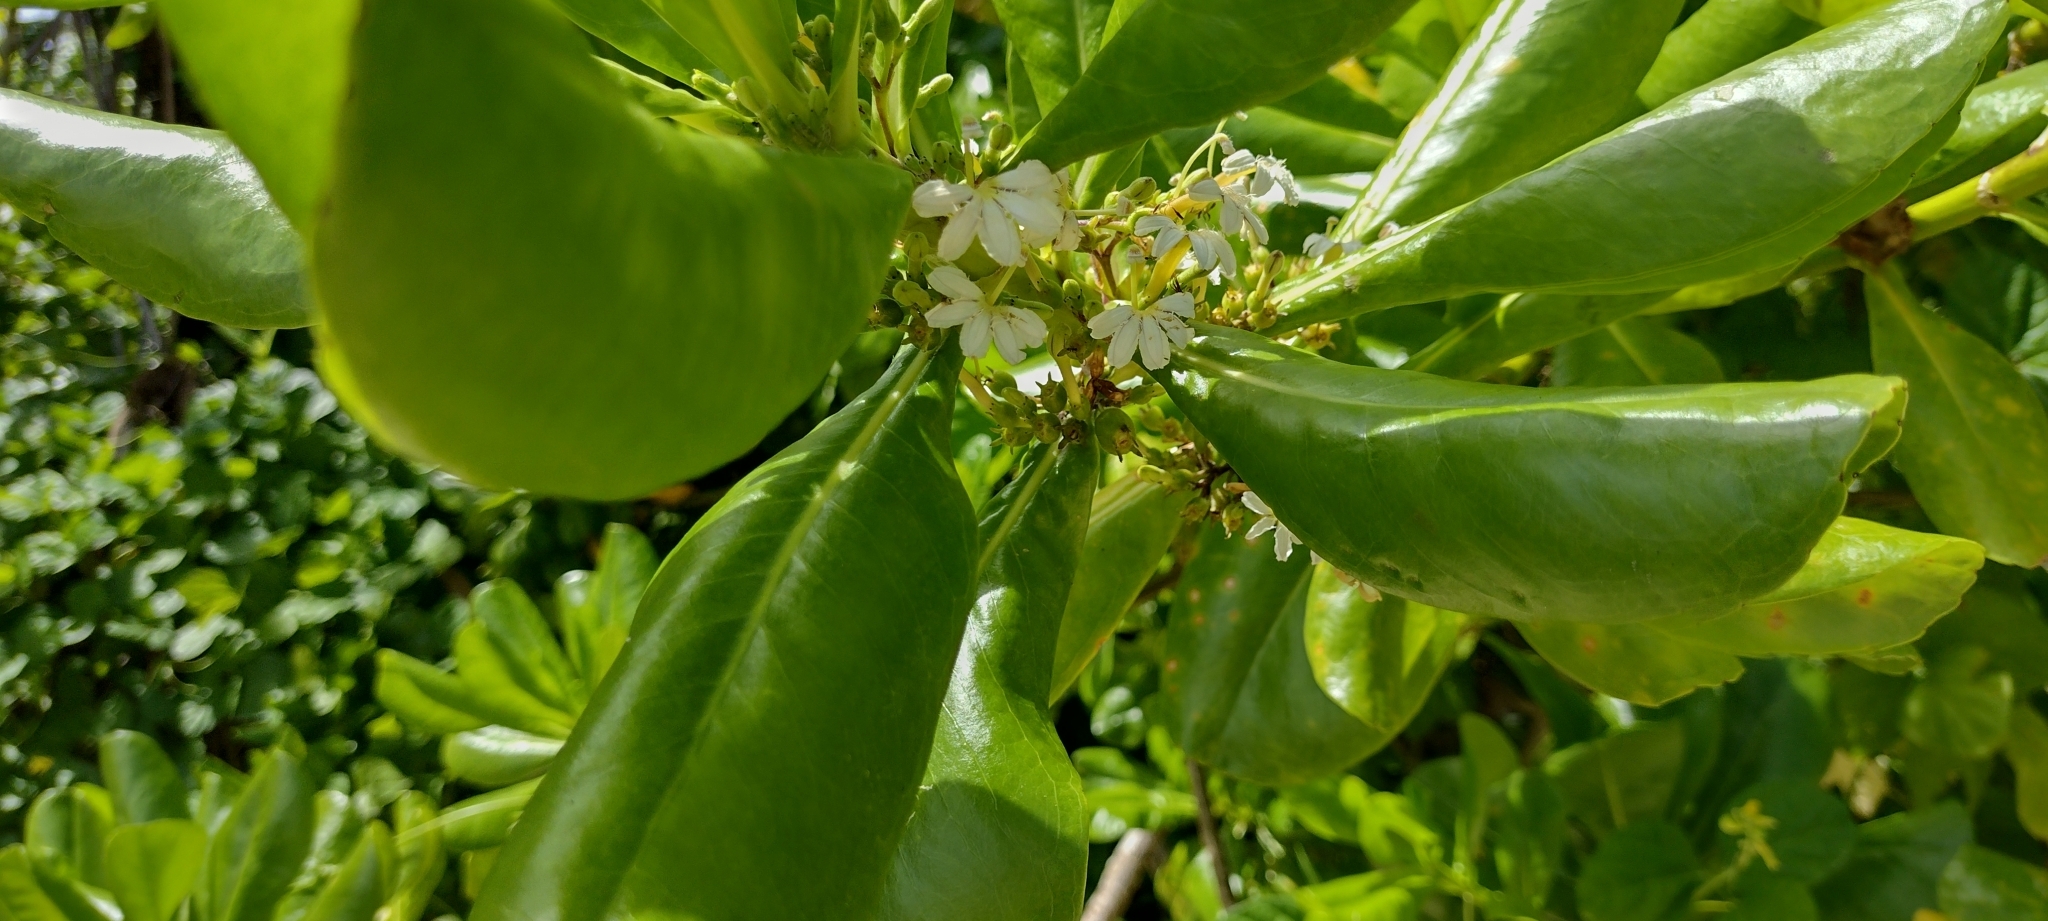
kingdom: Plantae
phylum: Tracheophyta
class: Magnoliopsida
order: Asterales
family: Goodeniaceae
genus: Scaevola
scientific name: Scaevola taccada
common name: Sea lettucetree
